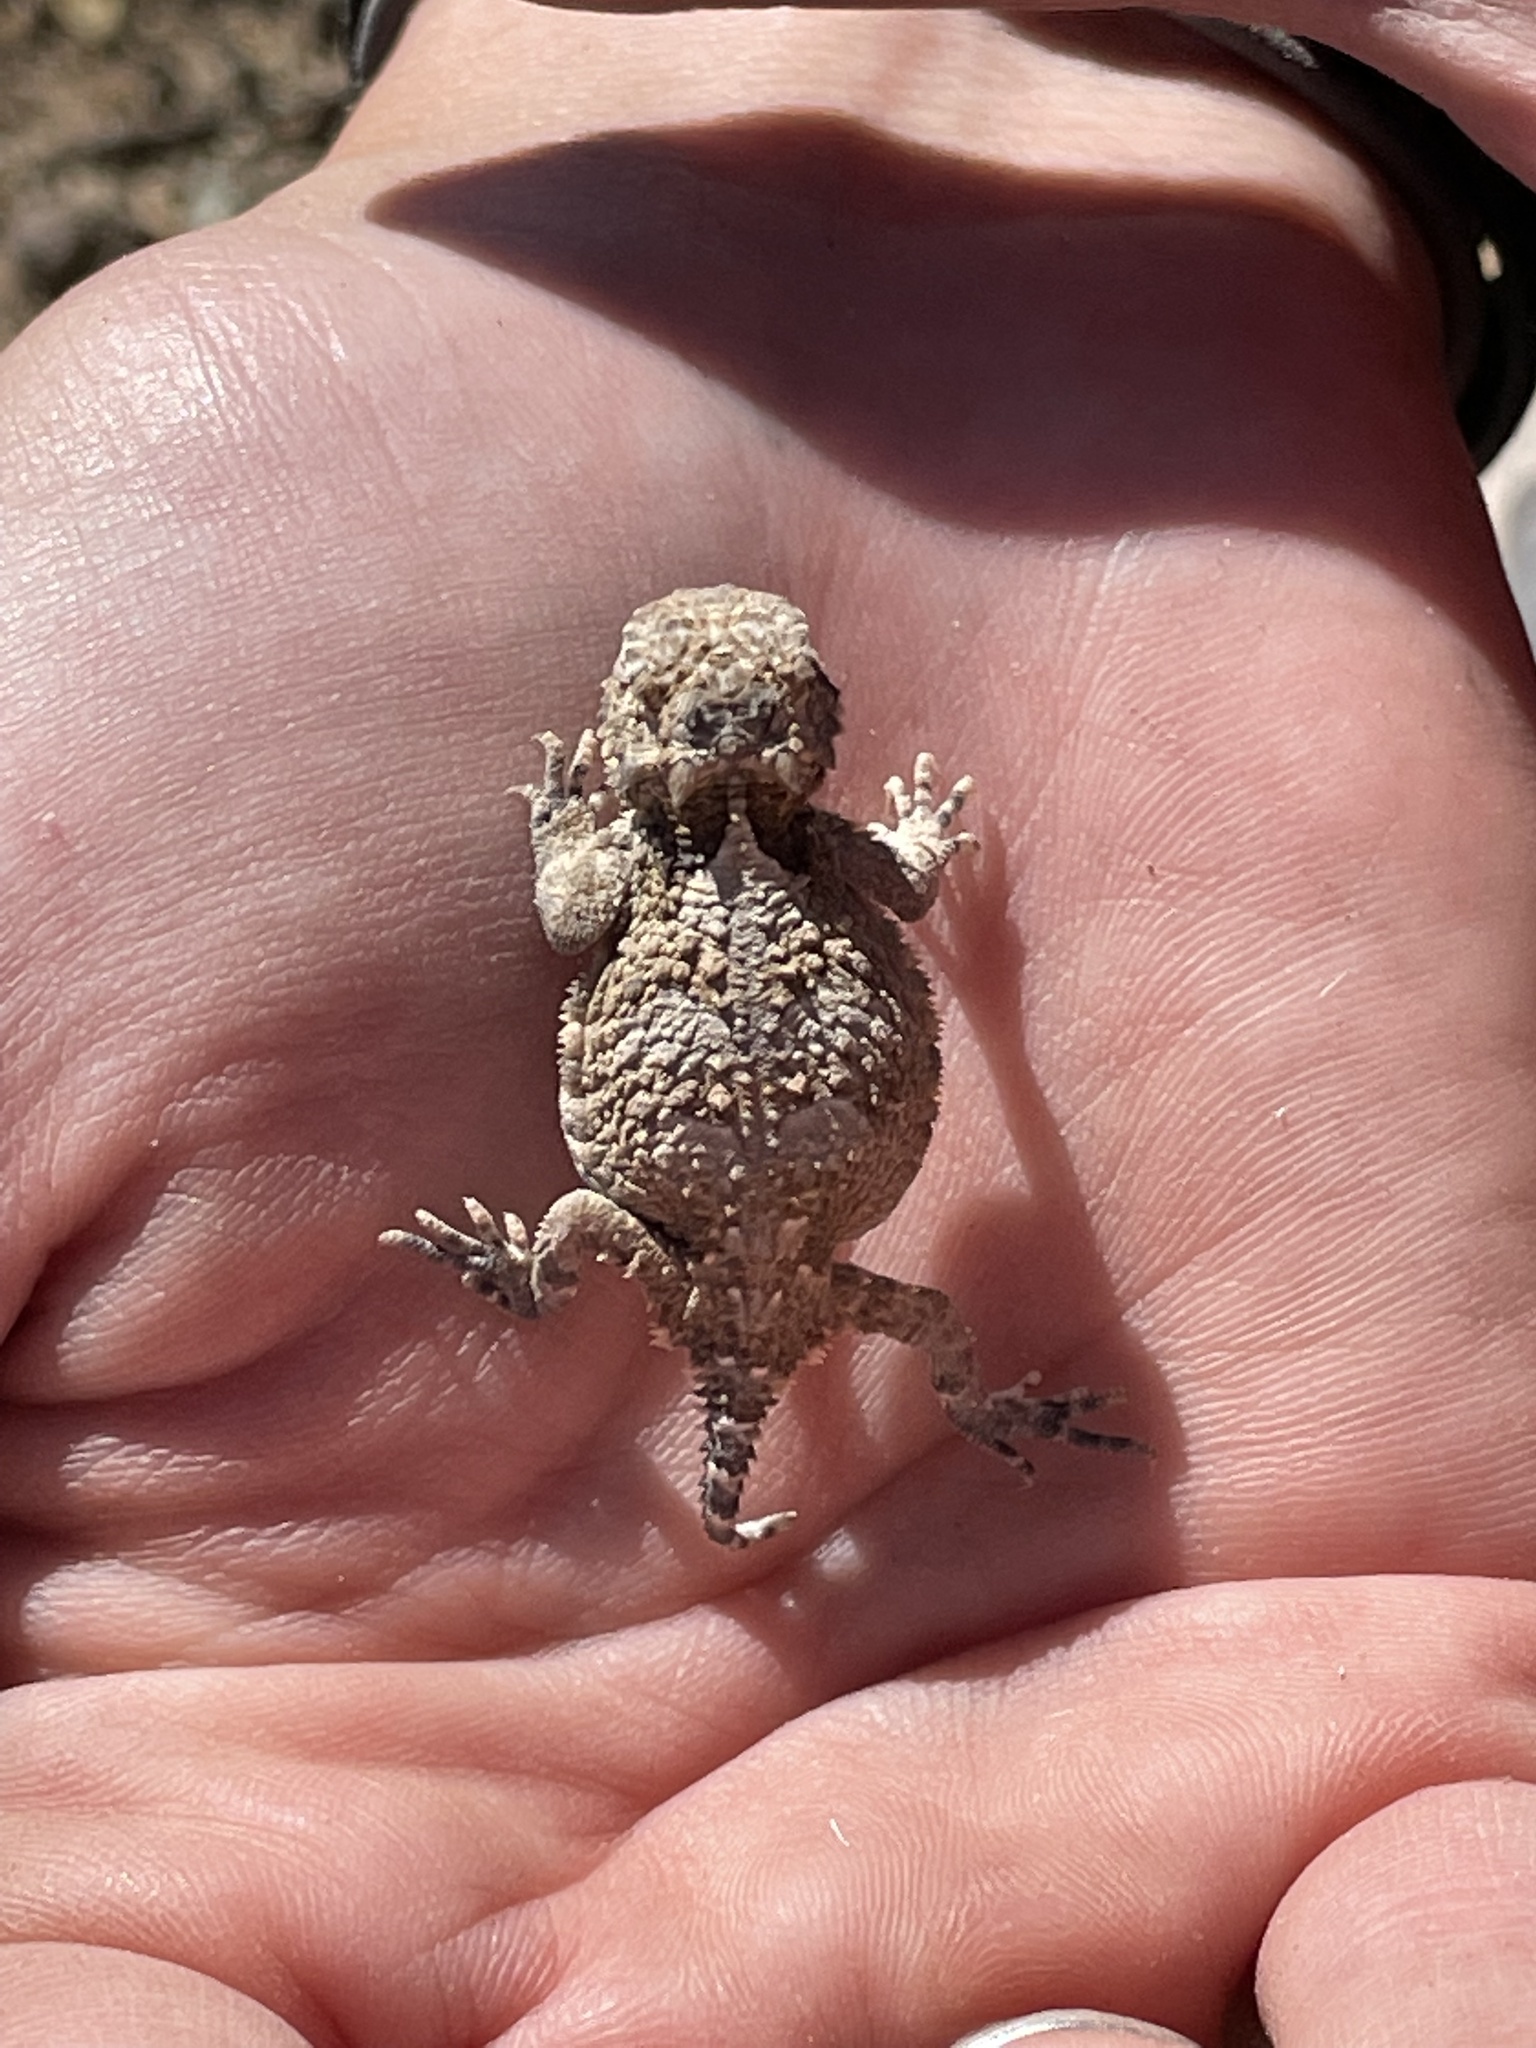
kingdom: Animalia
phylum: Chordata
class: Squamata
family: Phrynosomatidae
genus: Phrynosoma
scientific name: Phrynosoma platyrhinos
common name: Desert horned lizard
